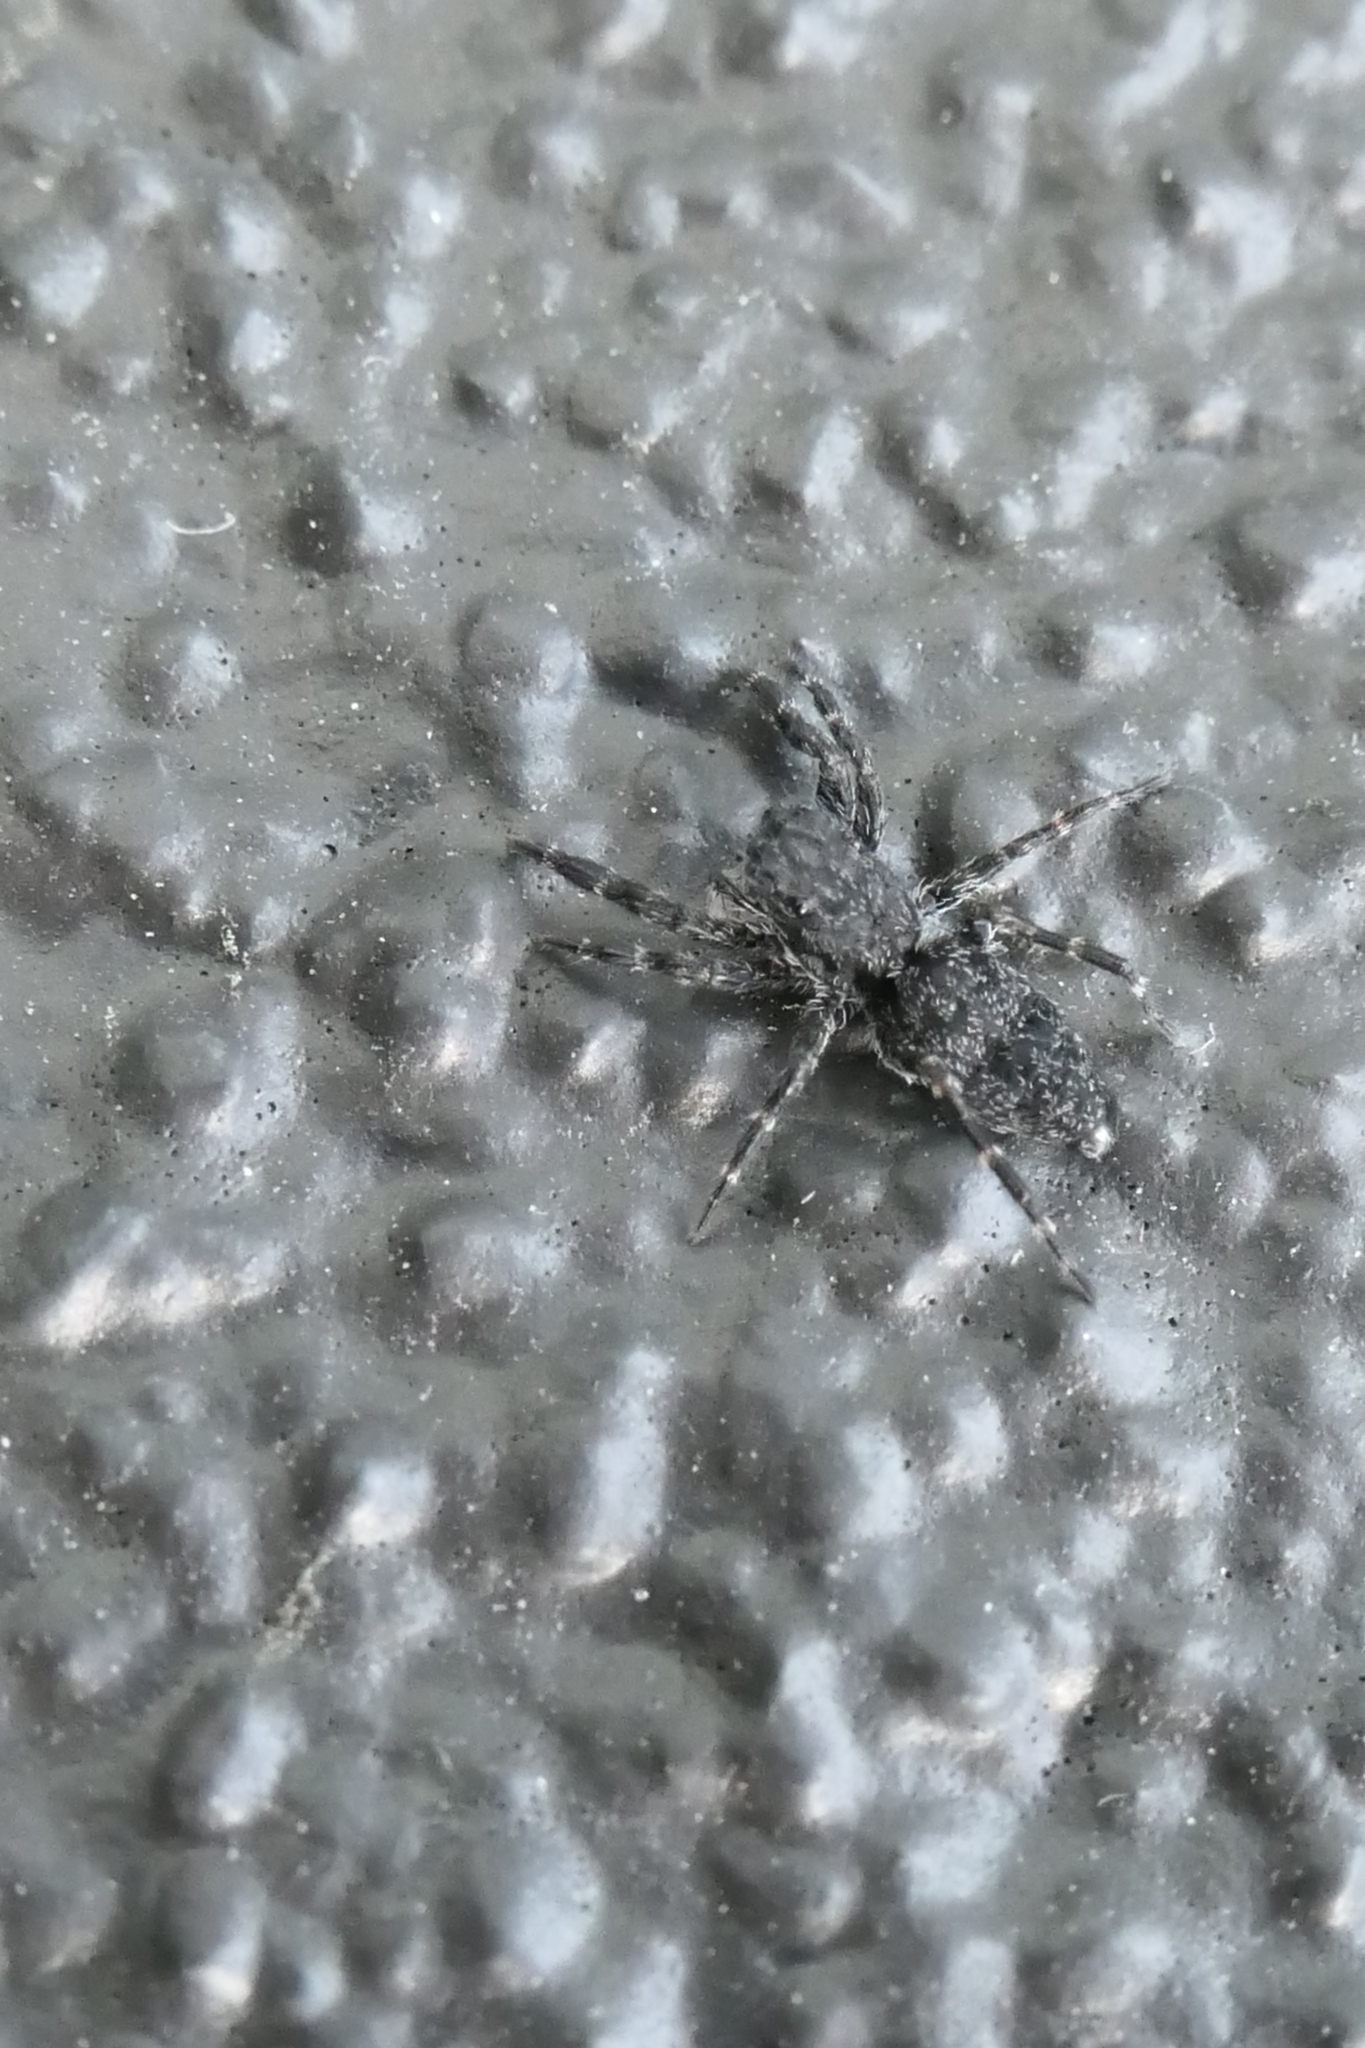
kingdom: Animalia
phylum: Arthropoda
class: Arachnida
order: Araneae
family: Salticidae
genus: Adoxotoma
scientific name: Adoxotoma forsteri
